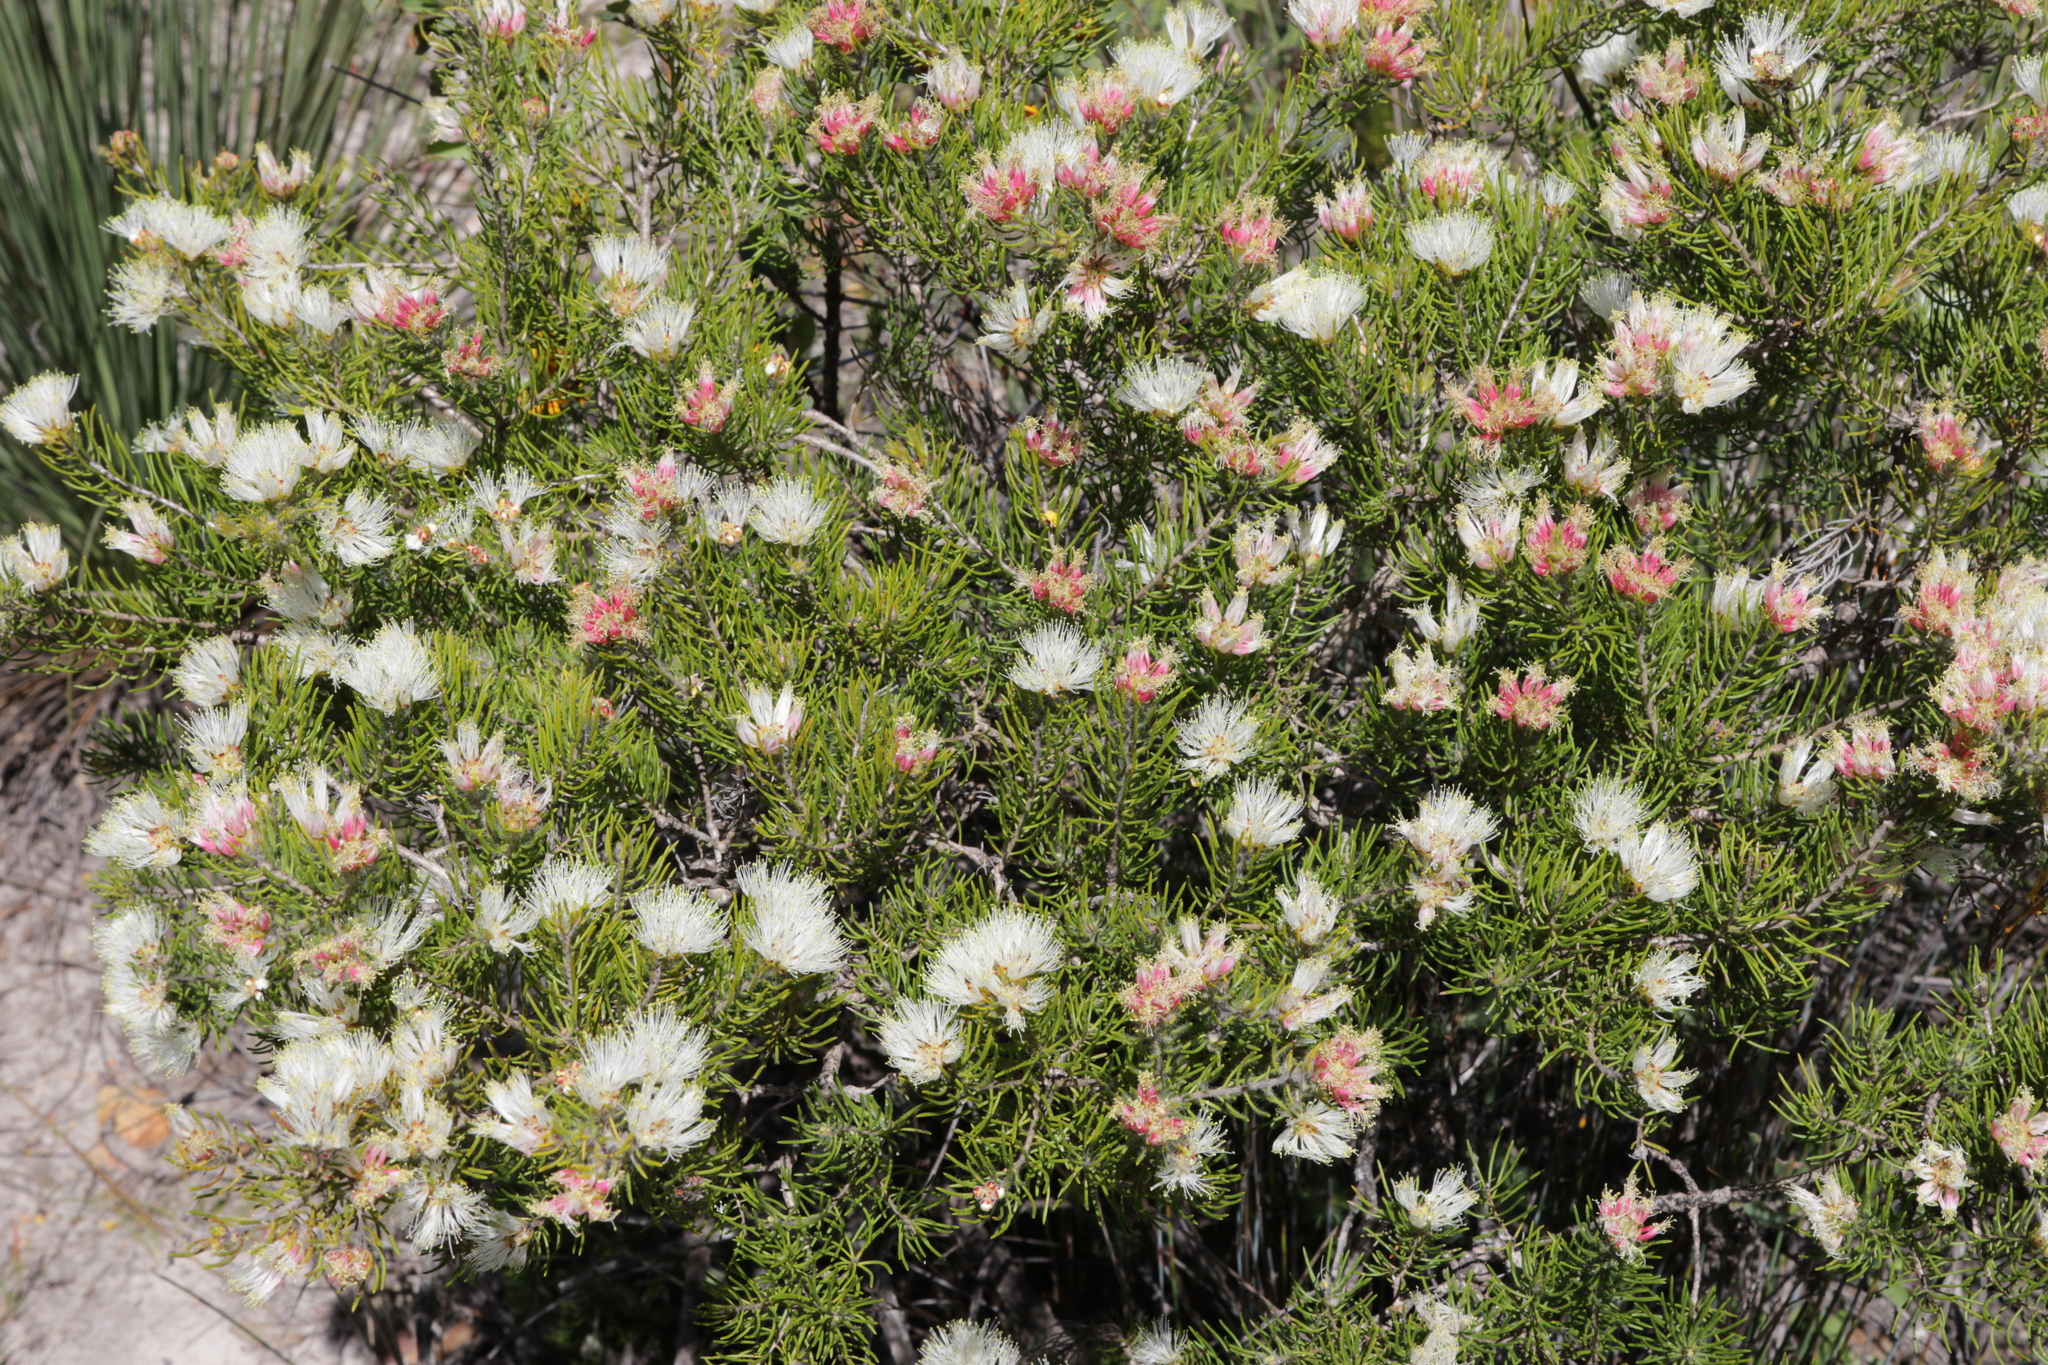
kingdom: Plantae
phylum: Tracheophyta
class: Magnoliopsida
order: Myrtales
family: Myrtaceae
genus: Melaleuca
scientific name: Melaleuca urceolaris
